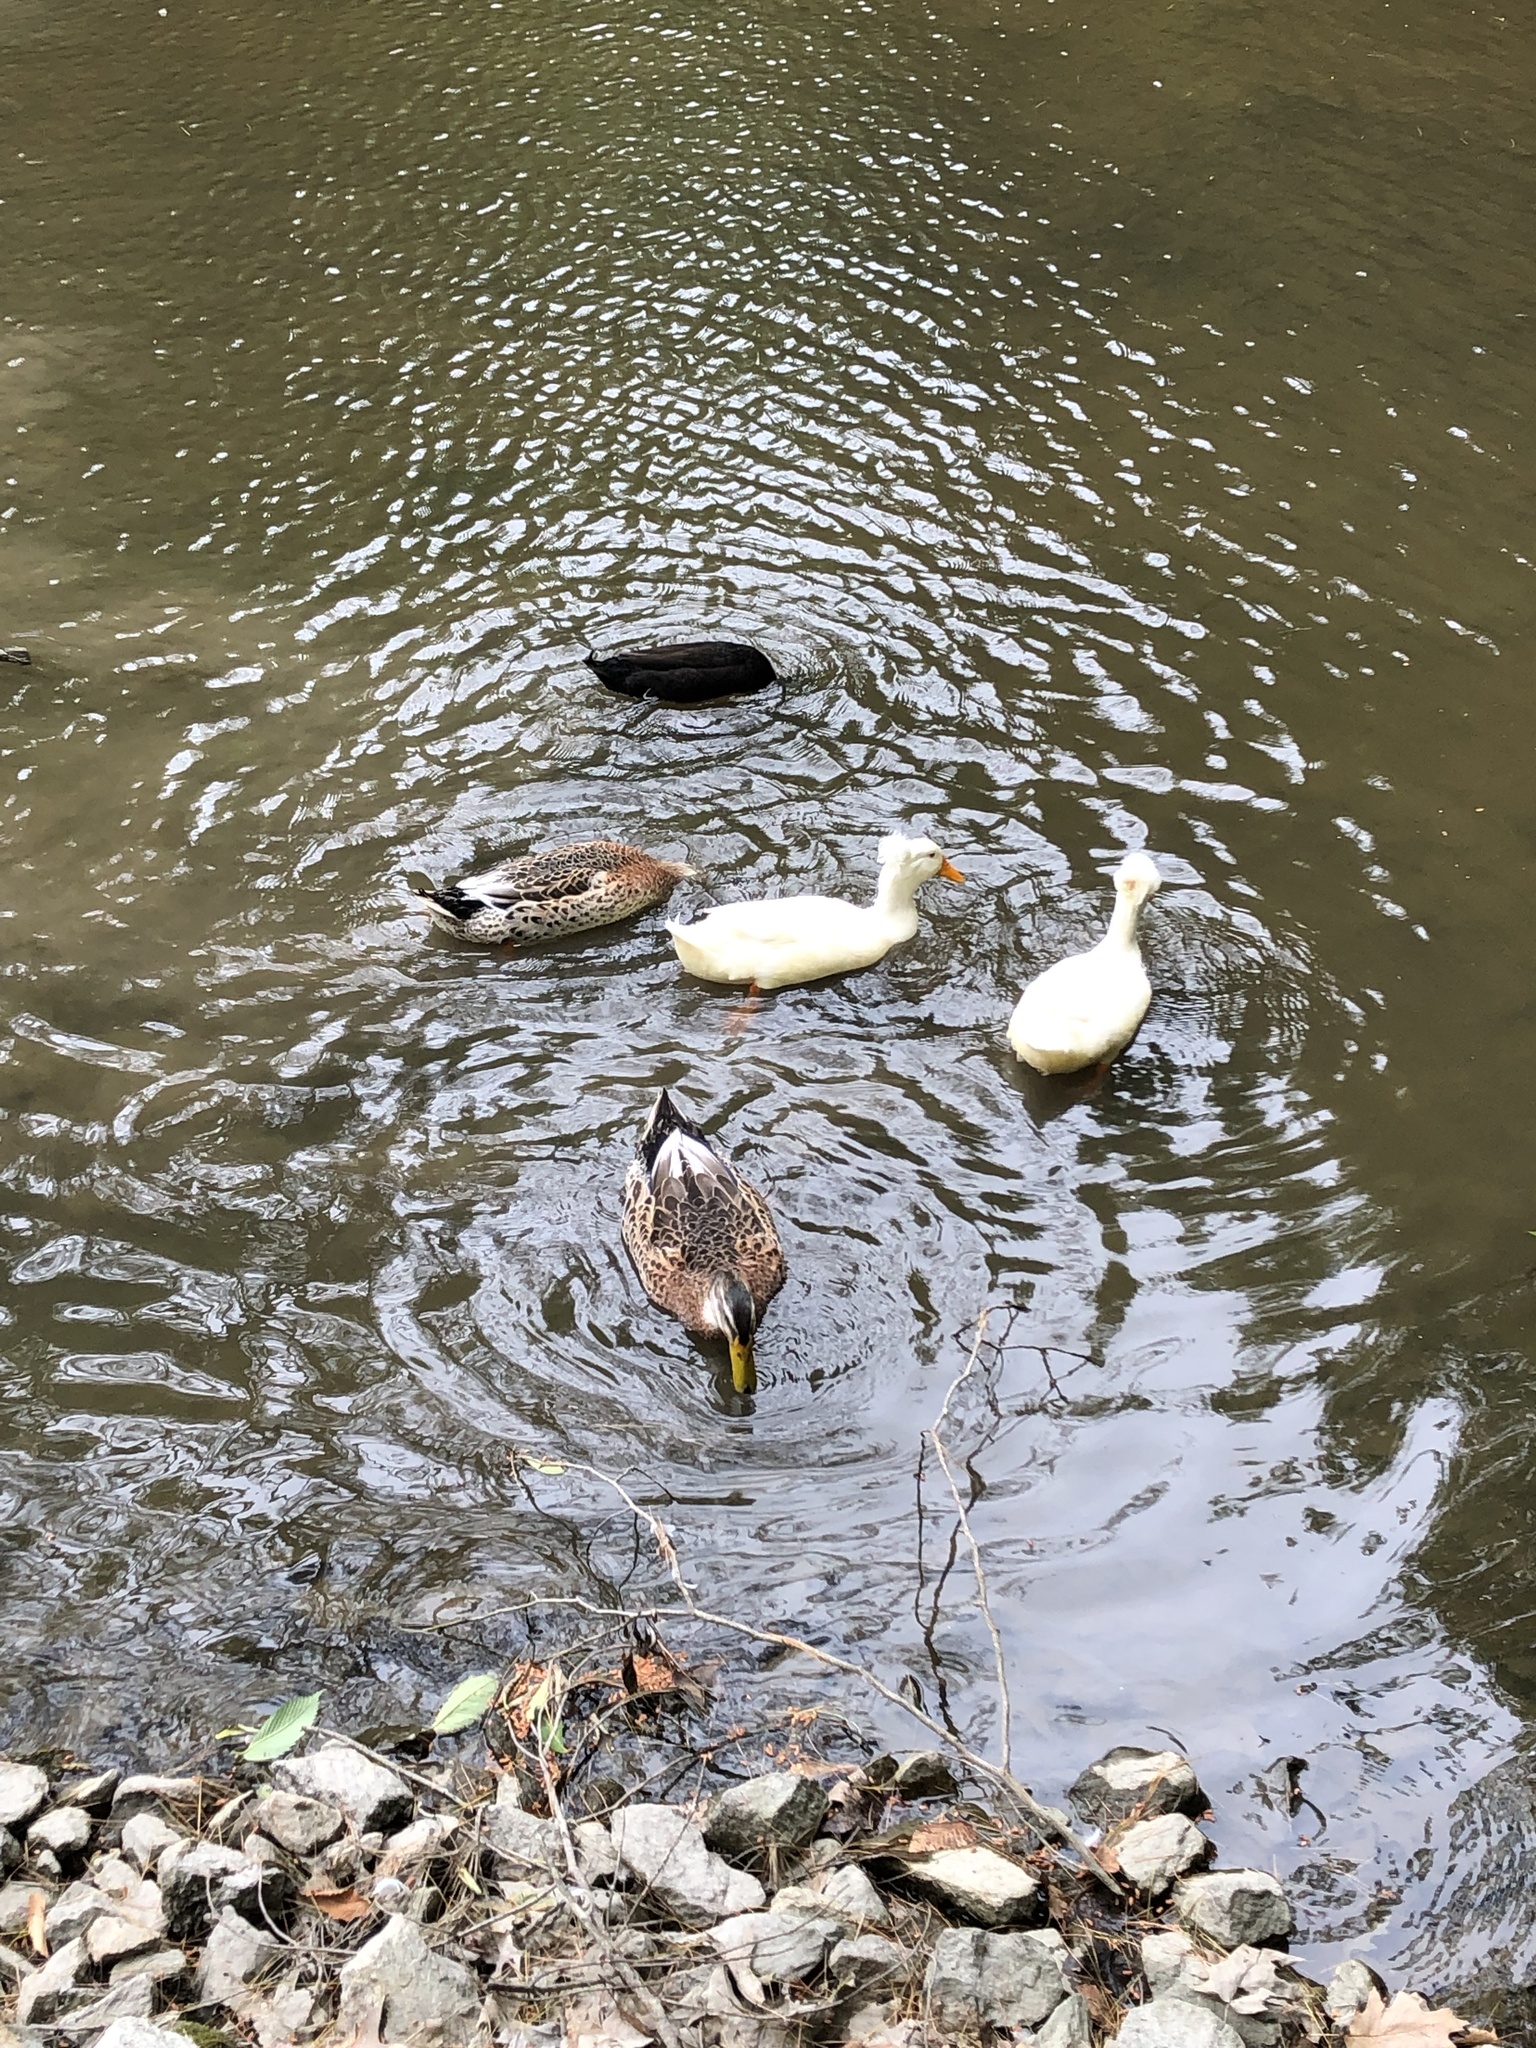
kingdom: Animalia
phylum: Chordata
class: Aves
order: Anseriformes
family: Anatidae
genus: Anas
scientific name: Anas platyrhynchos
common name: Mallard
